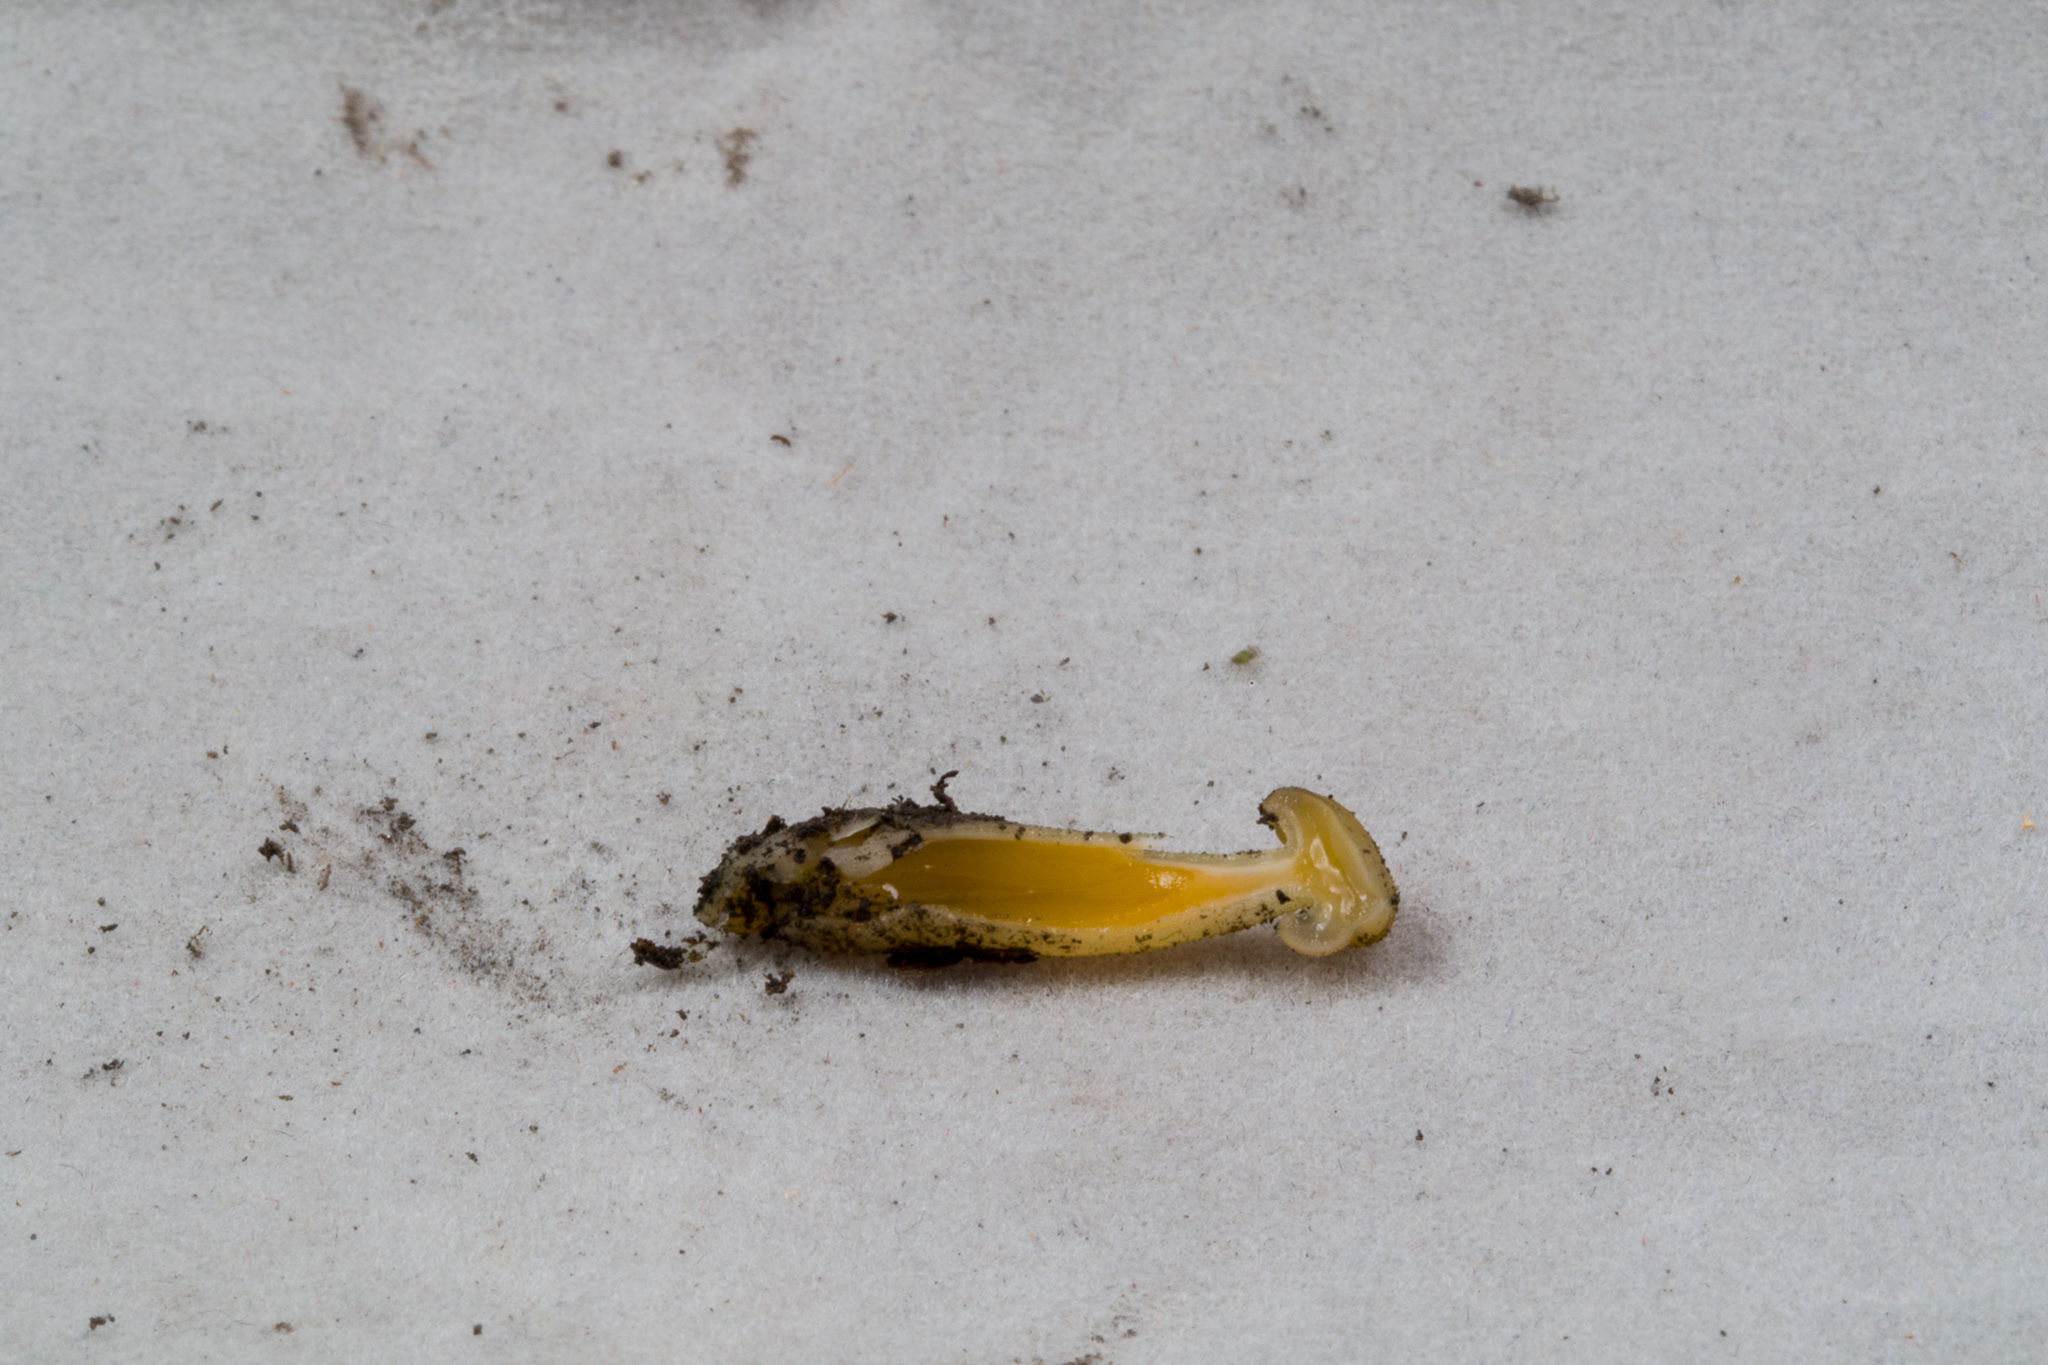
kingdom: Fungi
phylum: Ascomycota
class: Leotiomycetes
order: Leotiales
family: Leotiaceae
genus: Leotia
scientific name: Leotia lubrica
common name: Jellybaby
